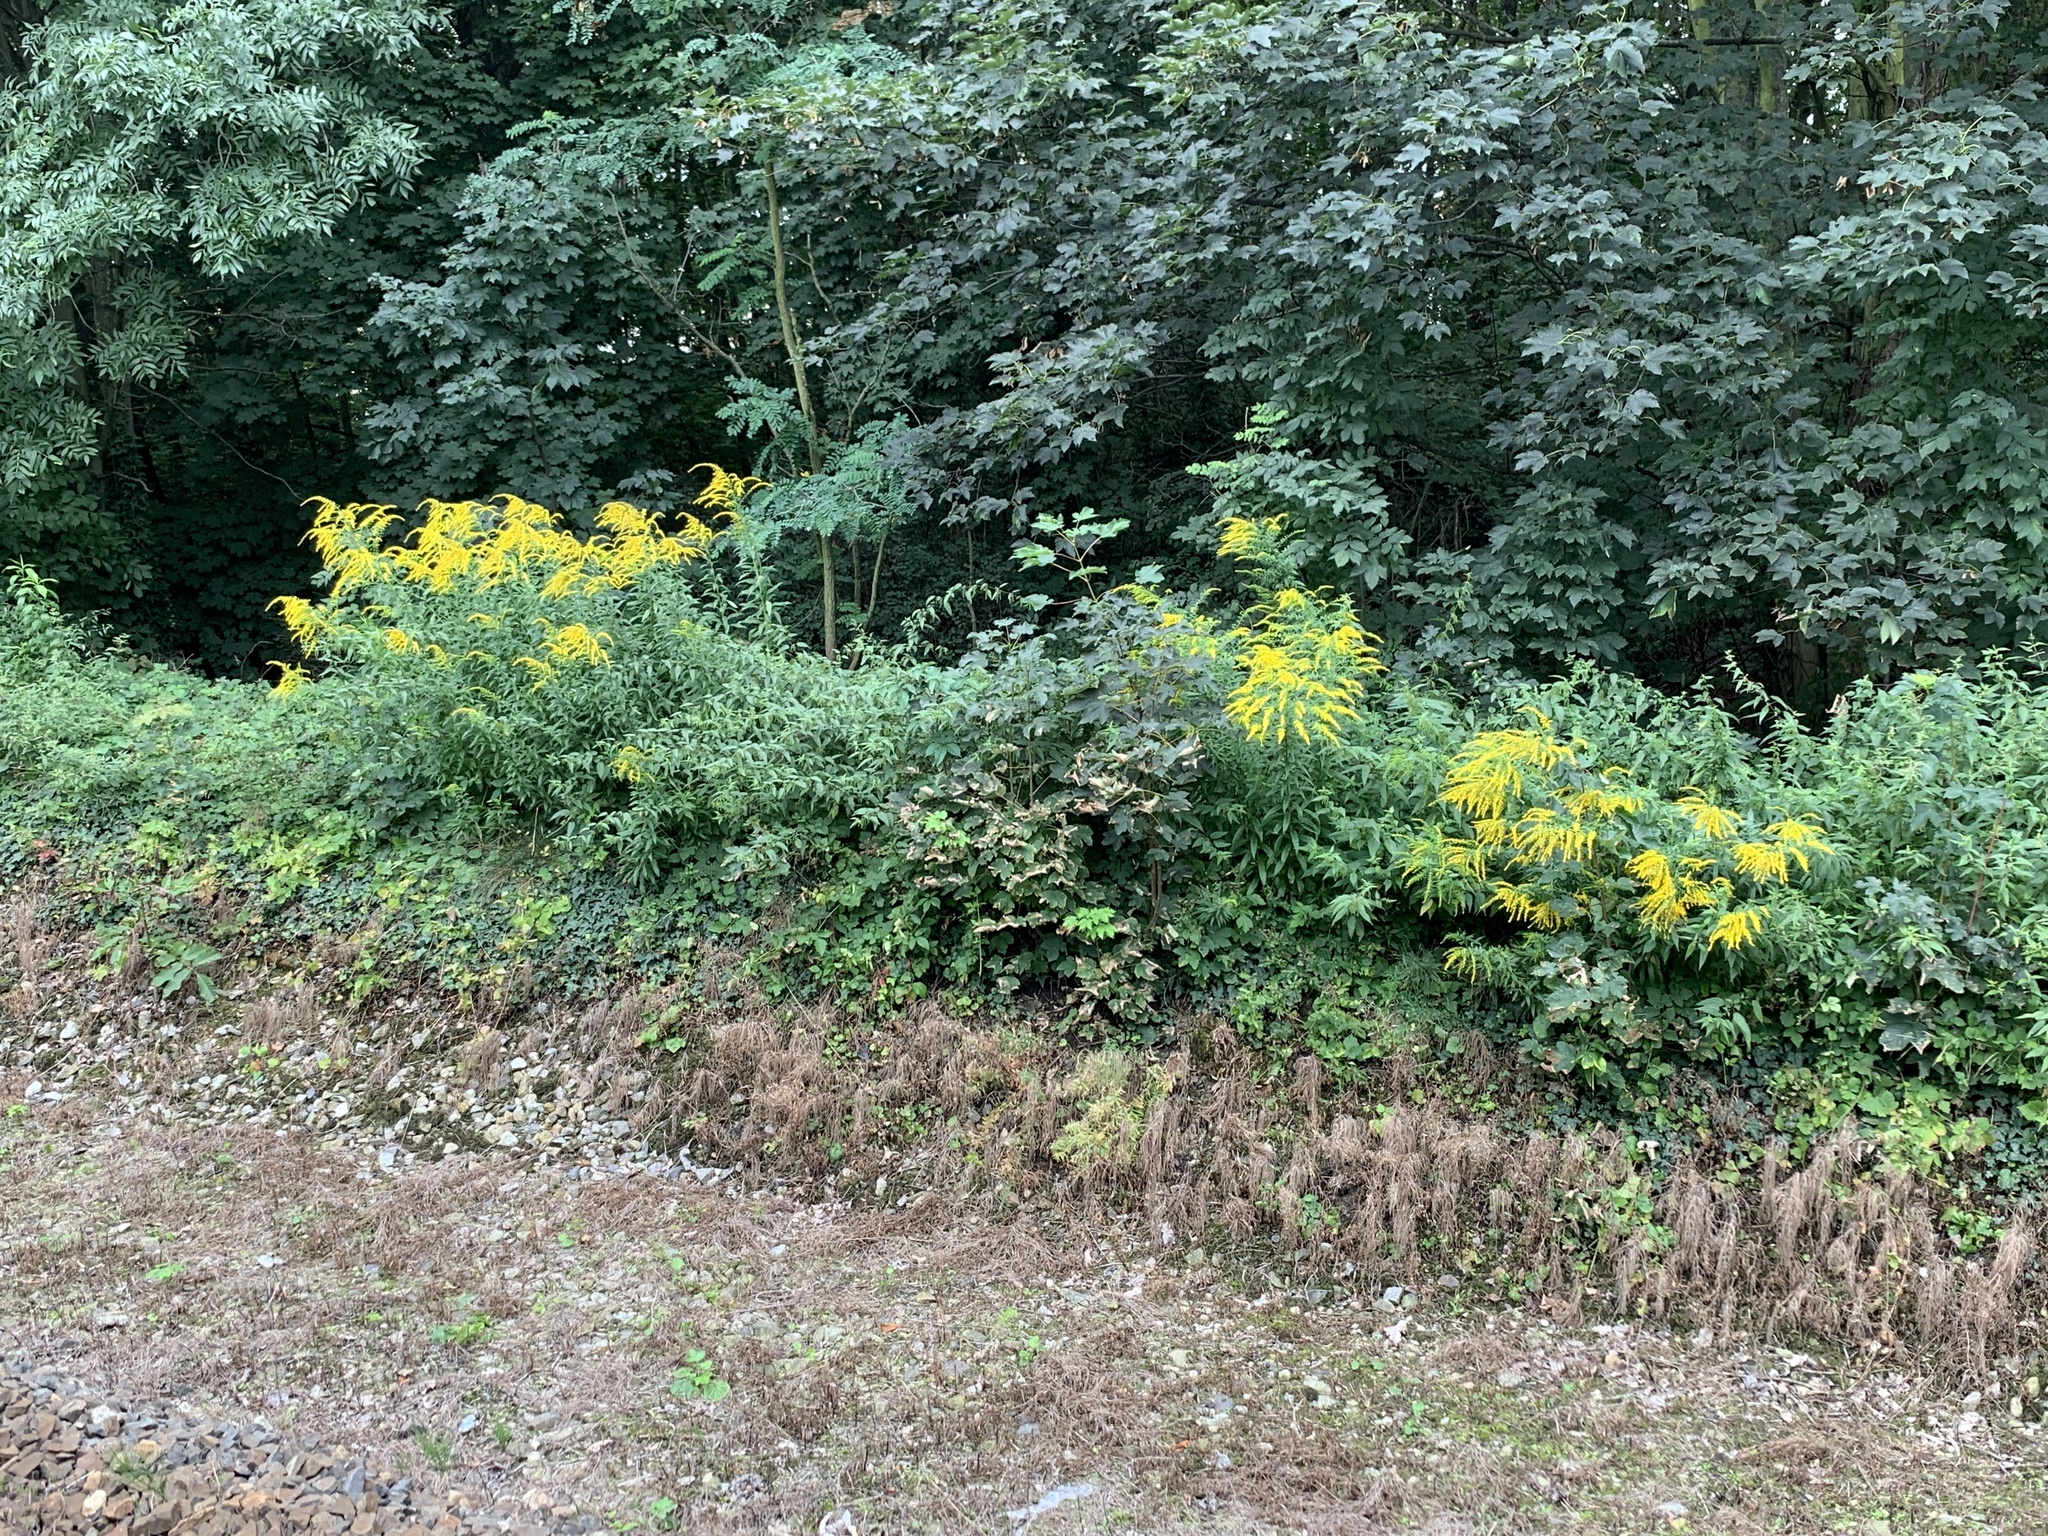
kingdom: Plantae
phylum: Tracheophyta
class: Magnoliopsida
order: Asterales
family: Asteraceae
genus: Solidago
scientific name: Solidago canadensis
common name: Canada goldenrod
